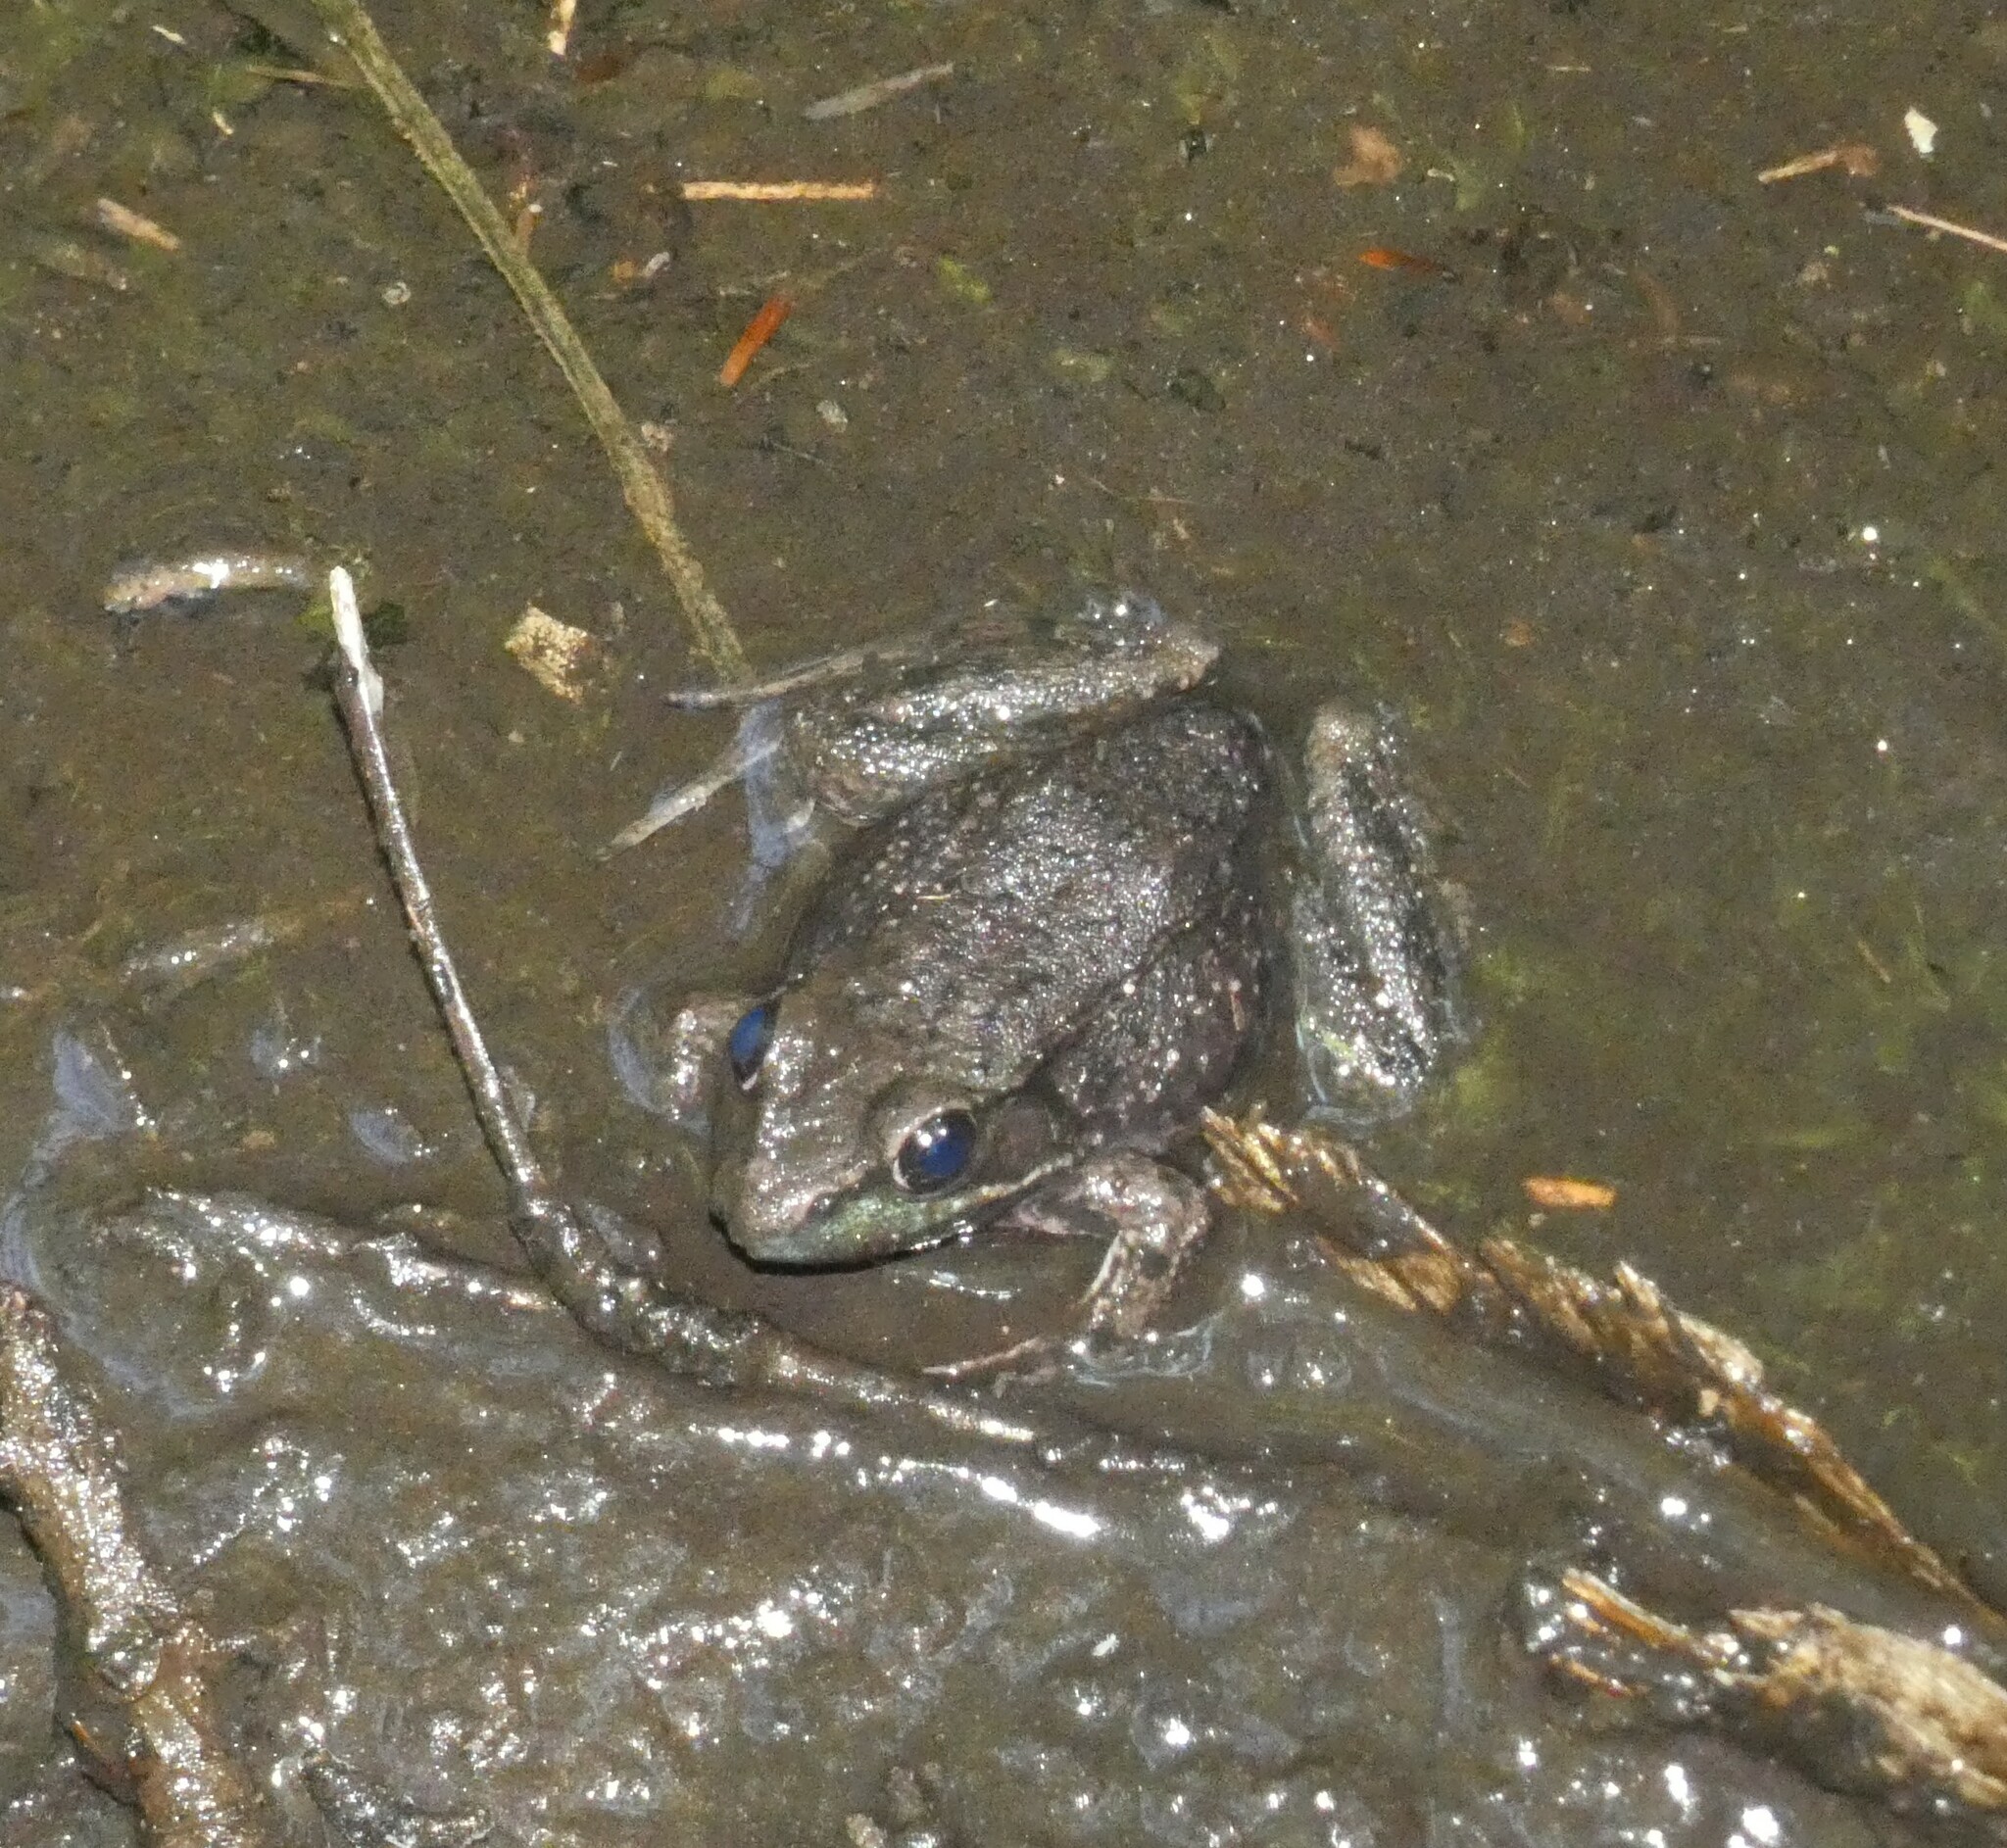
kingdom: Animalia
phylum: Chordata
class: Amphibia
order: Anura
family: Ranidae
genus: Lithobates
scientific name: Lithobates clamitans
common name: Green frog
